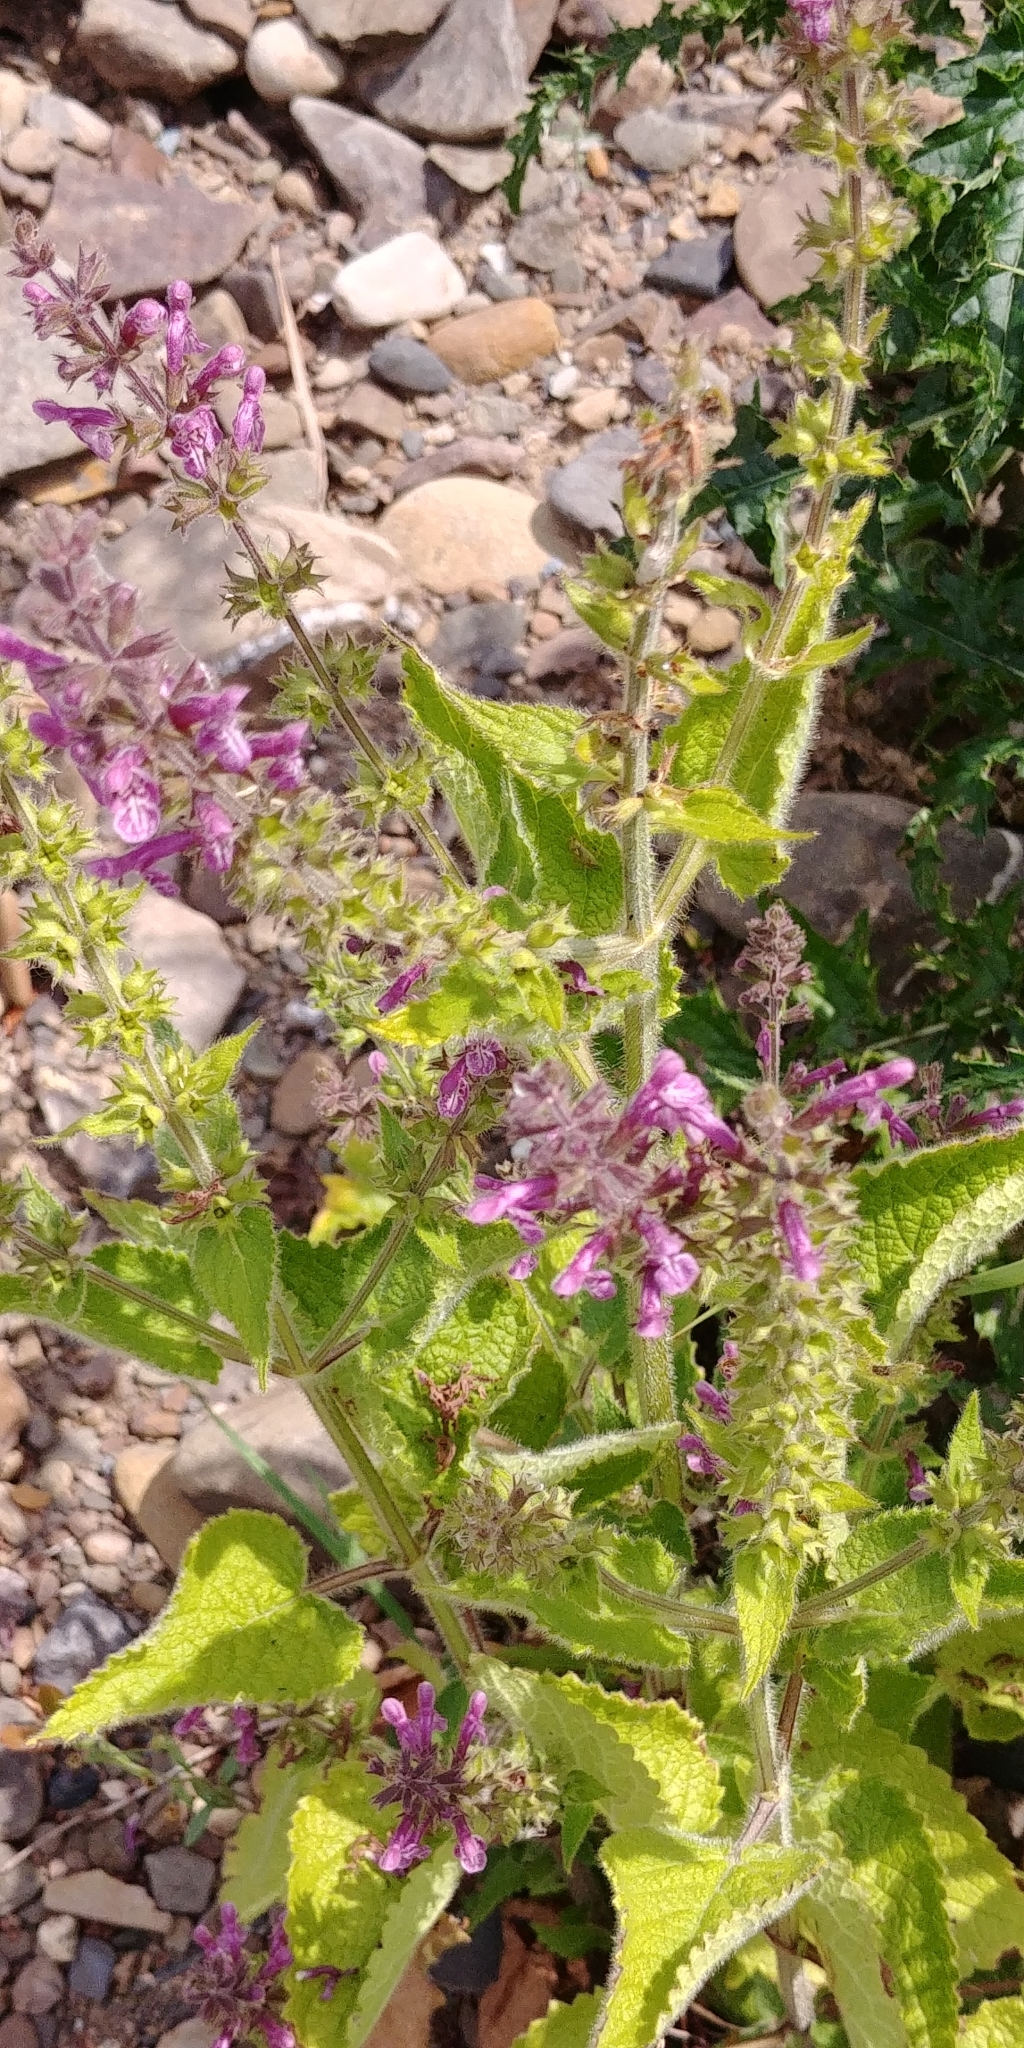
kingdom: Plantae
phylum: Tracheophyta
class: Magnoliopsida
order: Lamiales
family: Lamiaceae
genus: Stachys
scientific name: Stachys sylvatica
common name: Hedge woundwort
